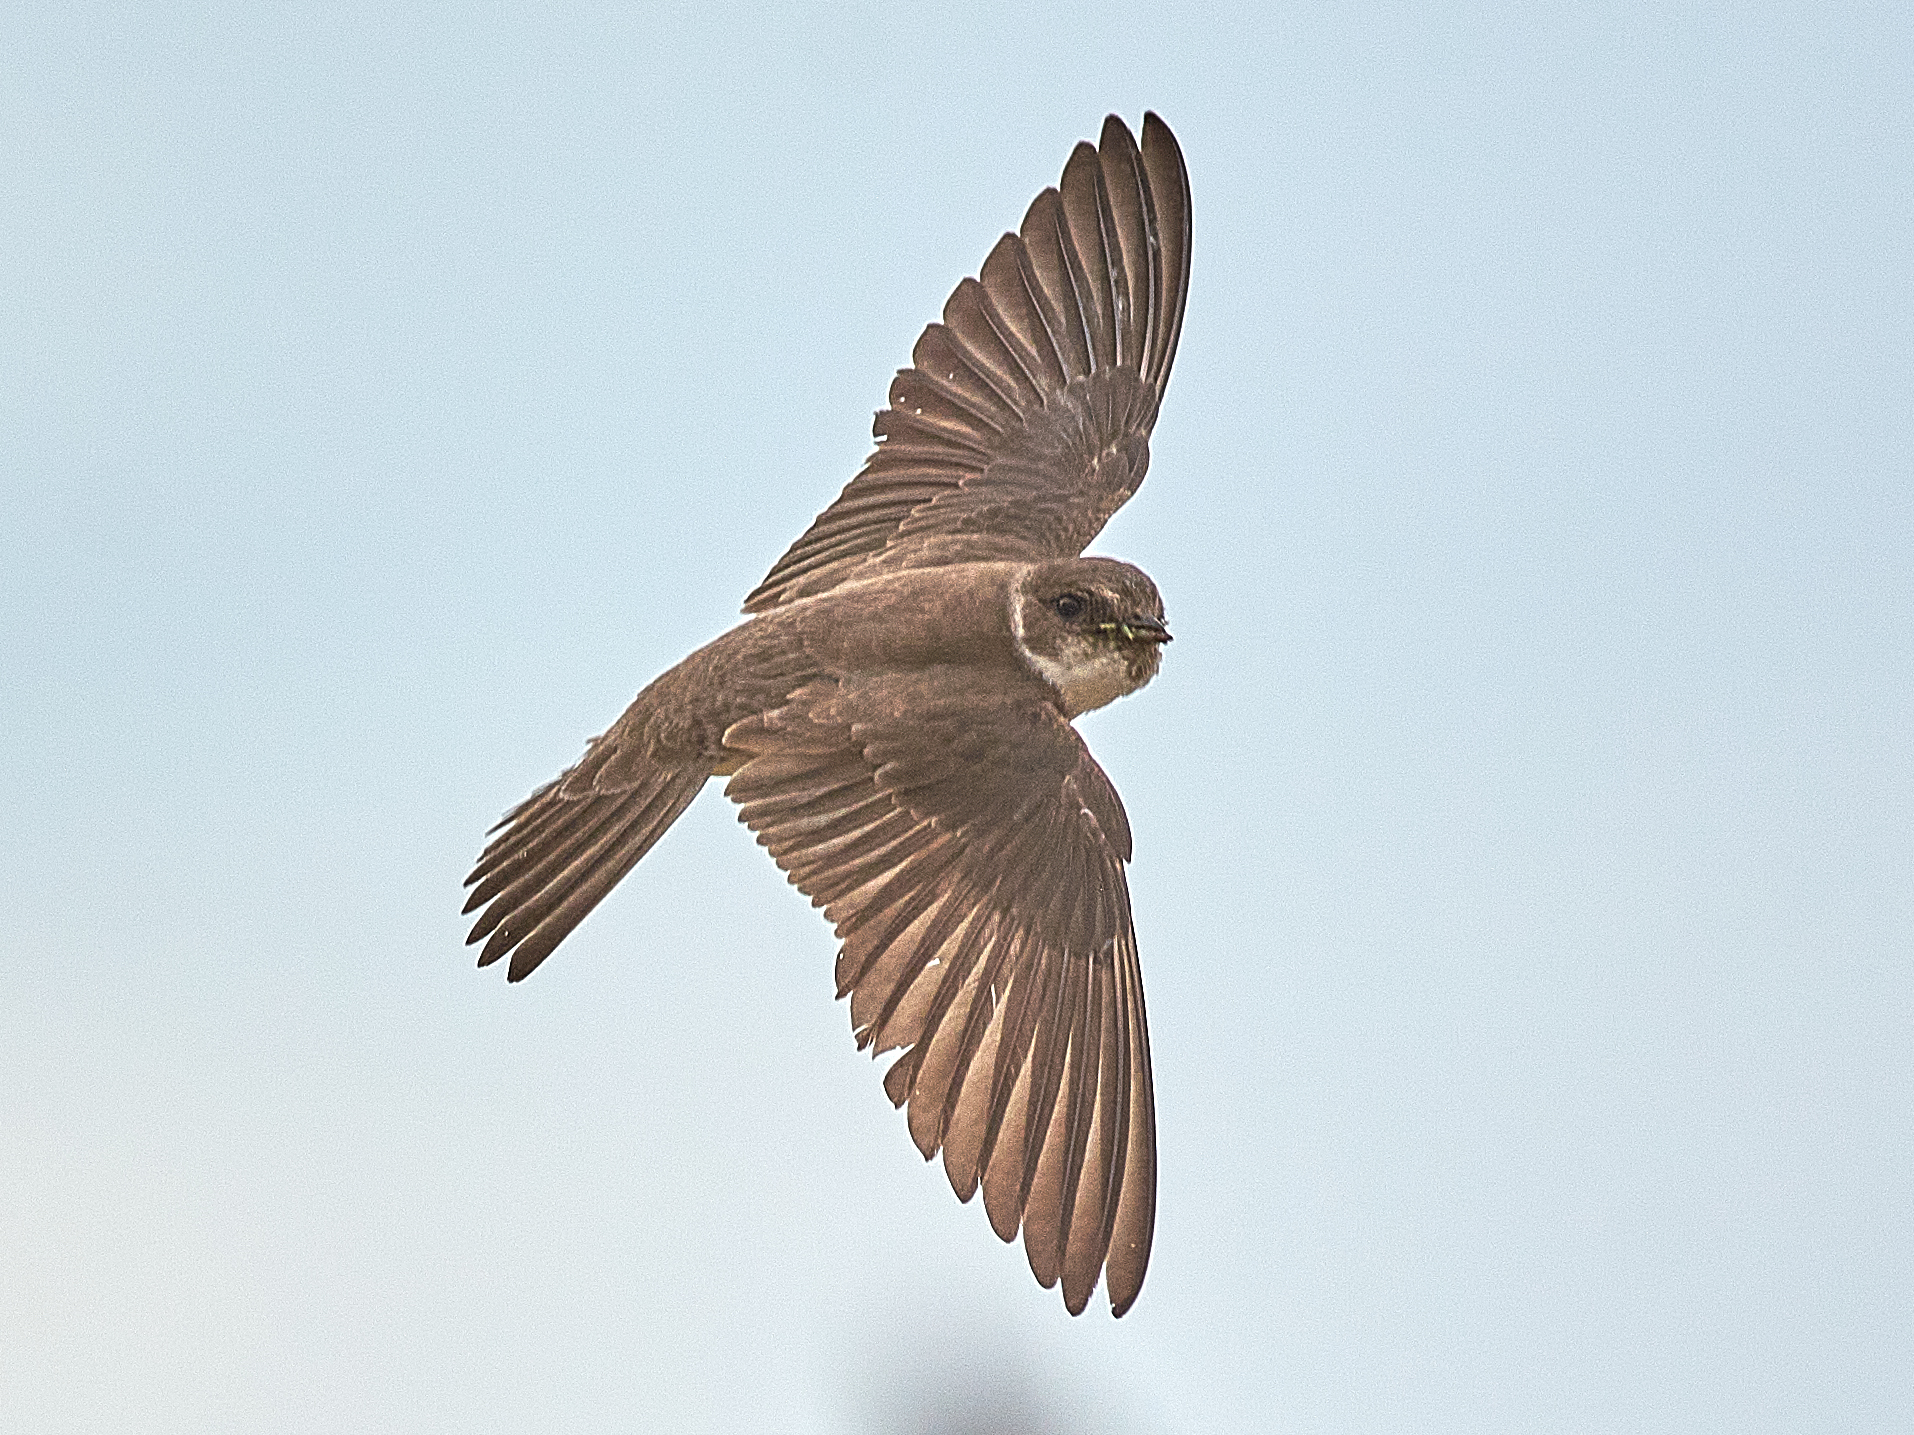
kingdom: Animalia
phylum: Chordata
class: Aves
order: Passeriformes
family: Hirundinidae
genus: Riparia
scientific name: Riparia riparia
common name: Sand martin
